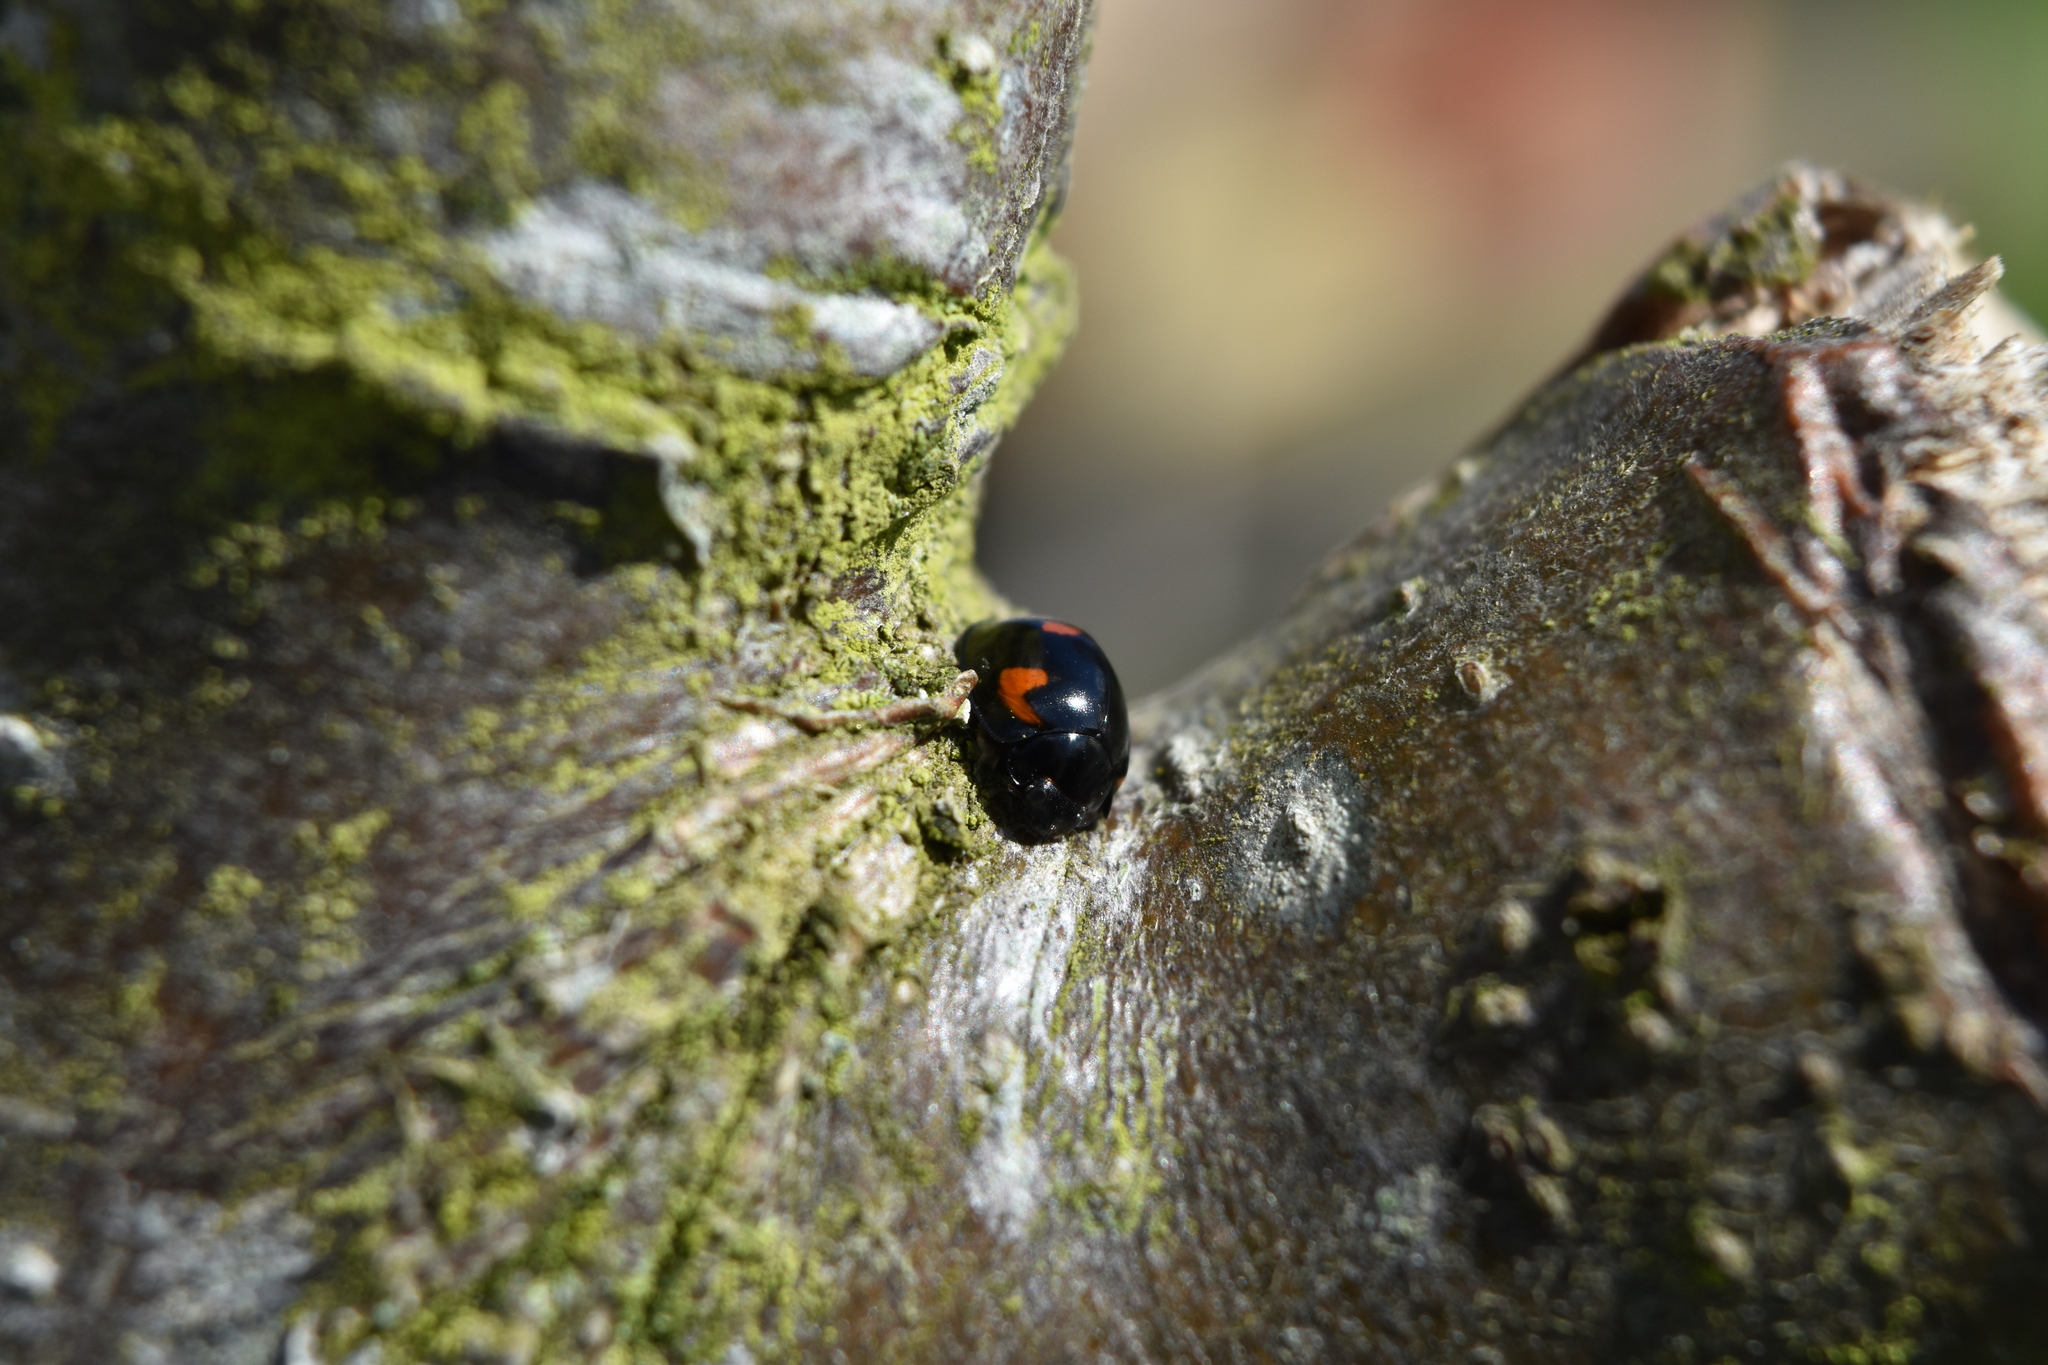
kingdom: Animalia
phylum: Arthropoda
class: Insecta
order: Coleoptera
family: Coccinellidae
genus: Brumus
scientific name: Brumus quadripustulatus
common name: Ladybird beetle
